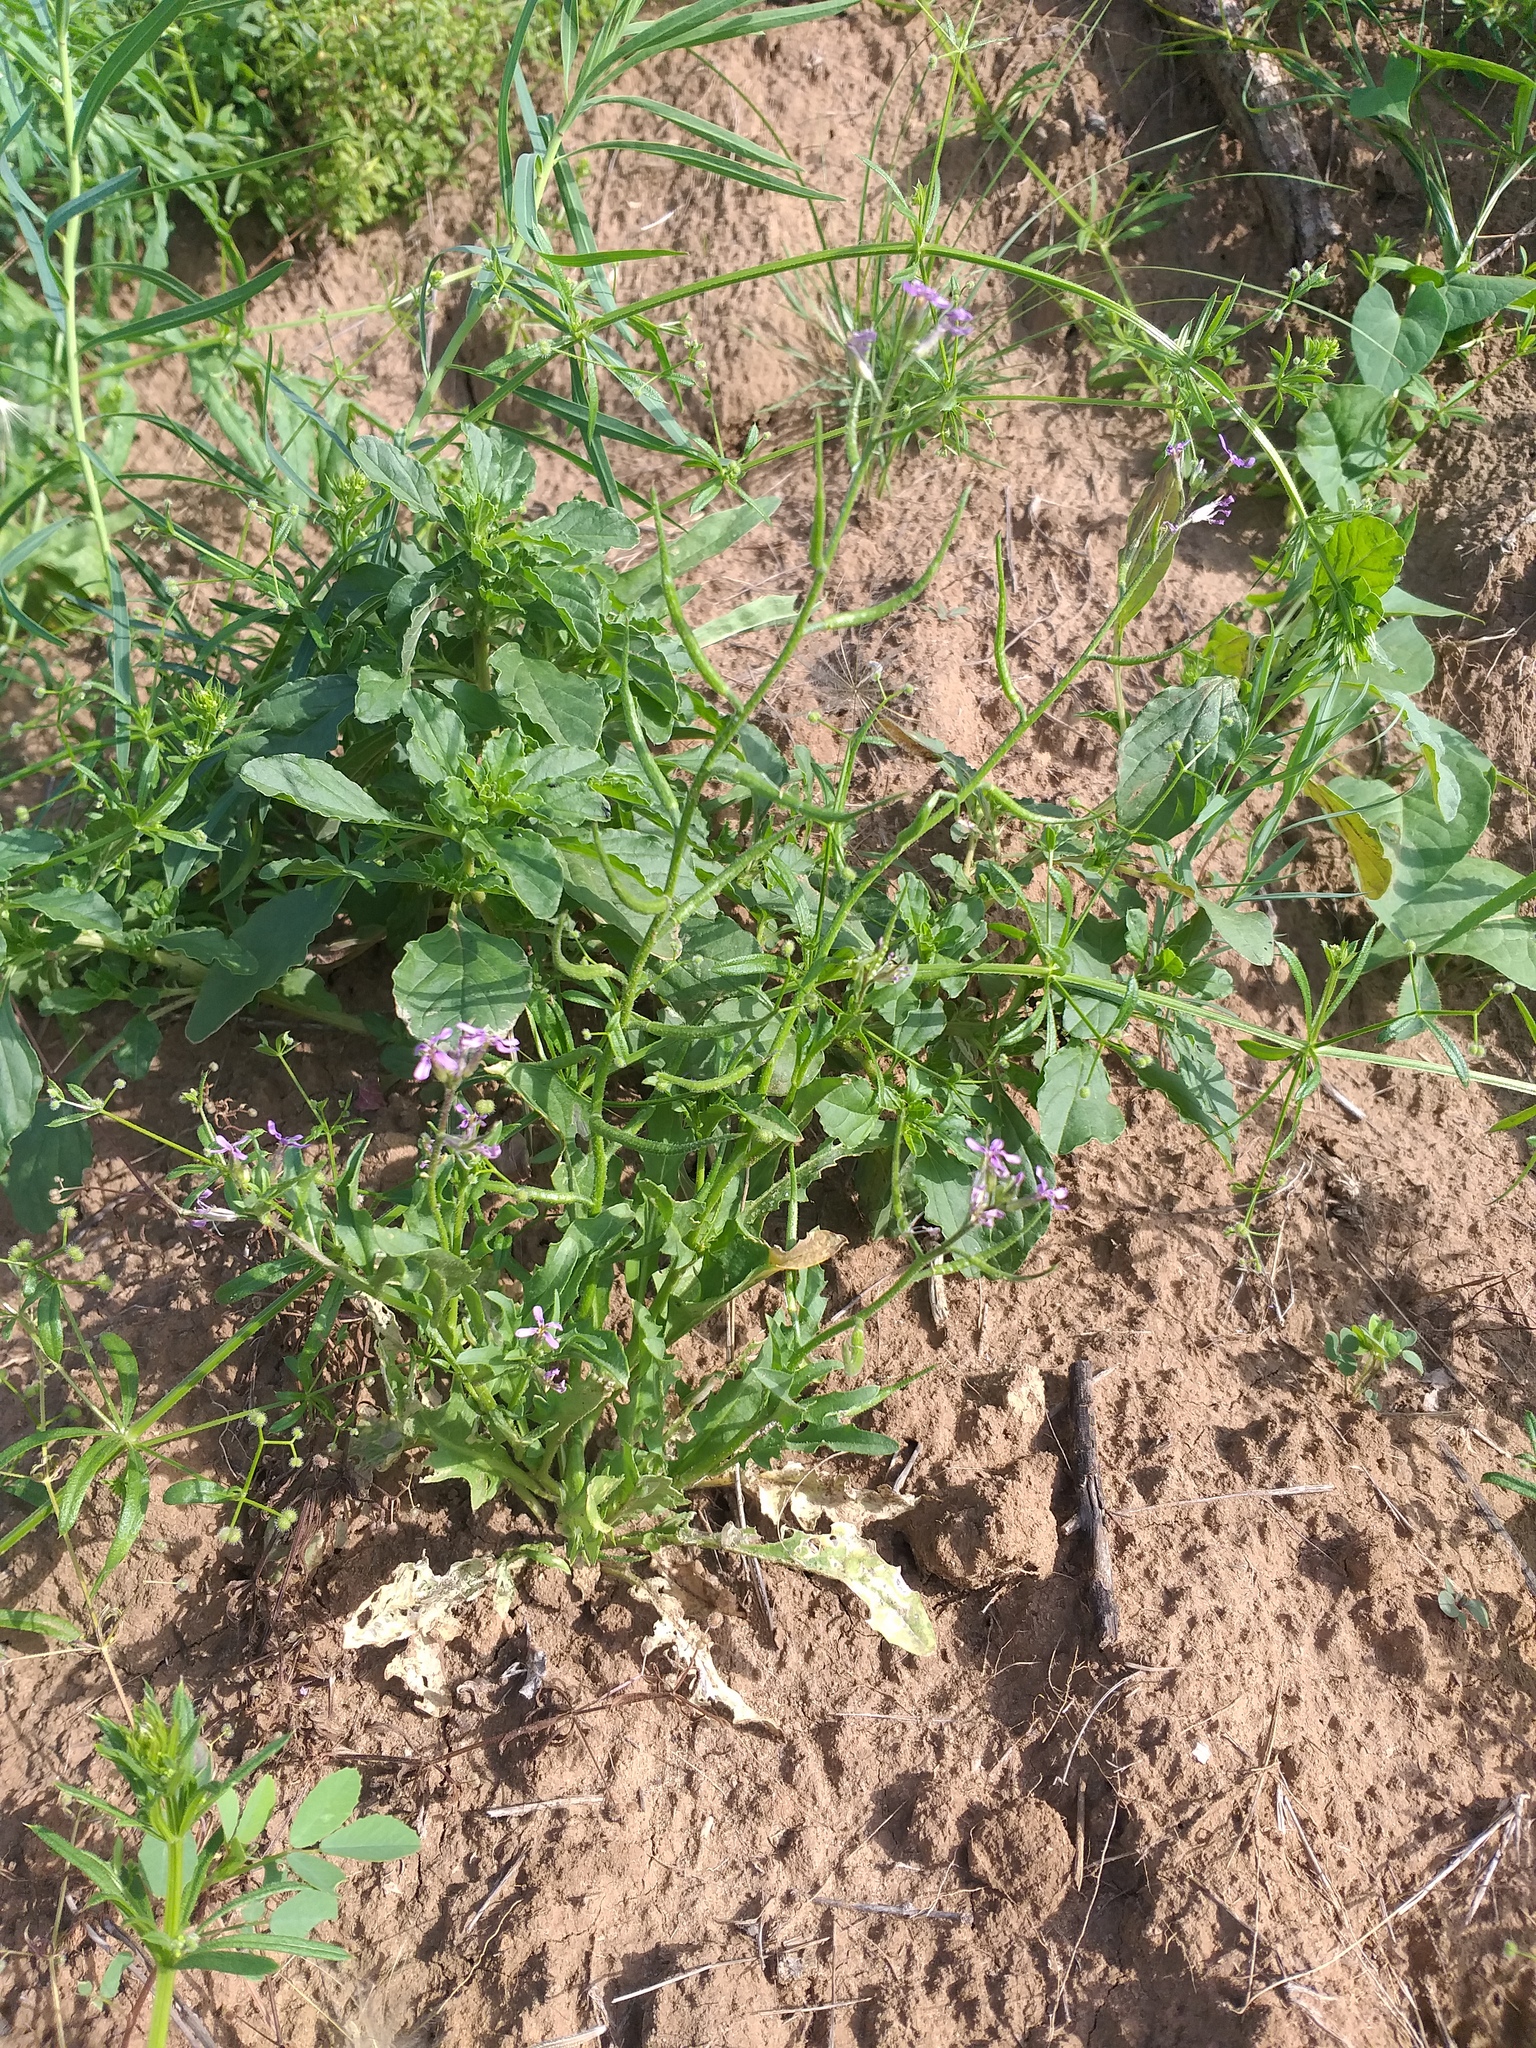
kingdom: Plantae
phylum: Tracheophyta
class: Magnoliopsida
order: Brassicales
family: Brassicaceae
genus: Chorispora
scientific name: Chorispora tenella
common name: Crossflower
